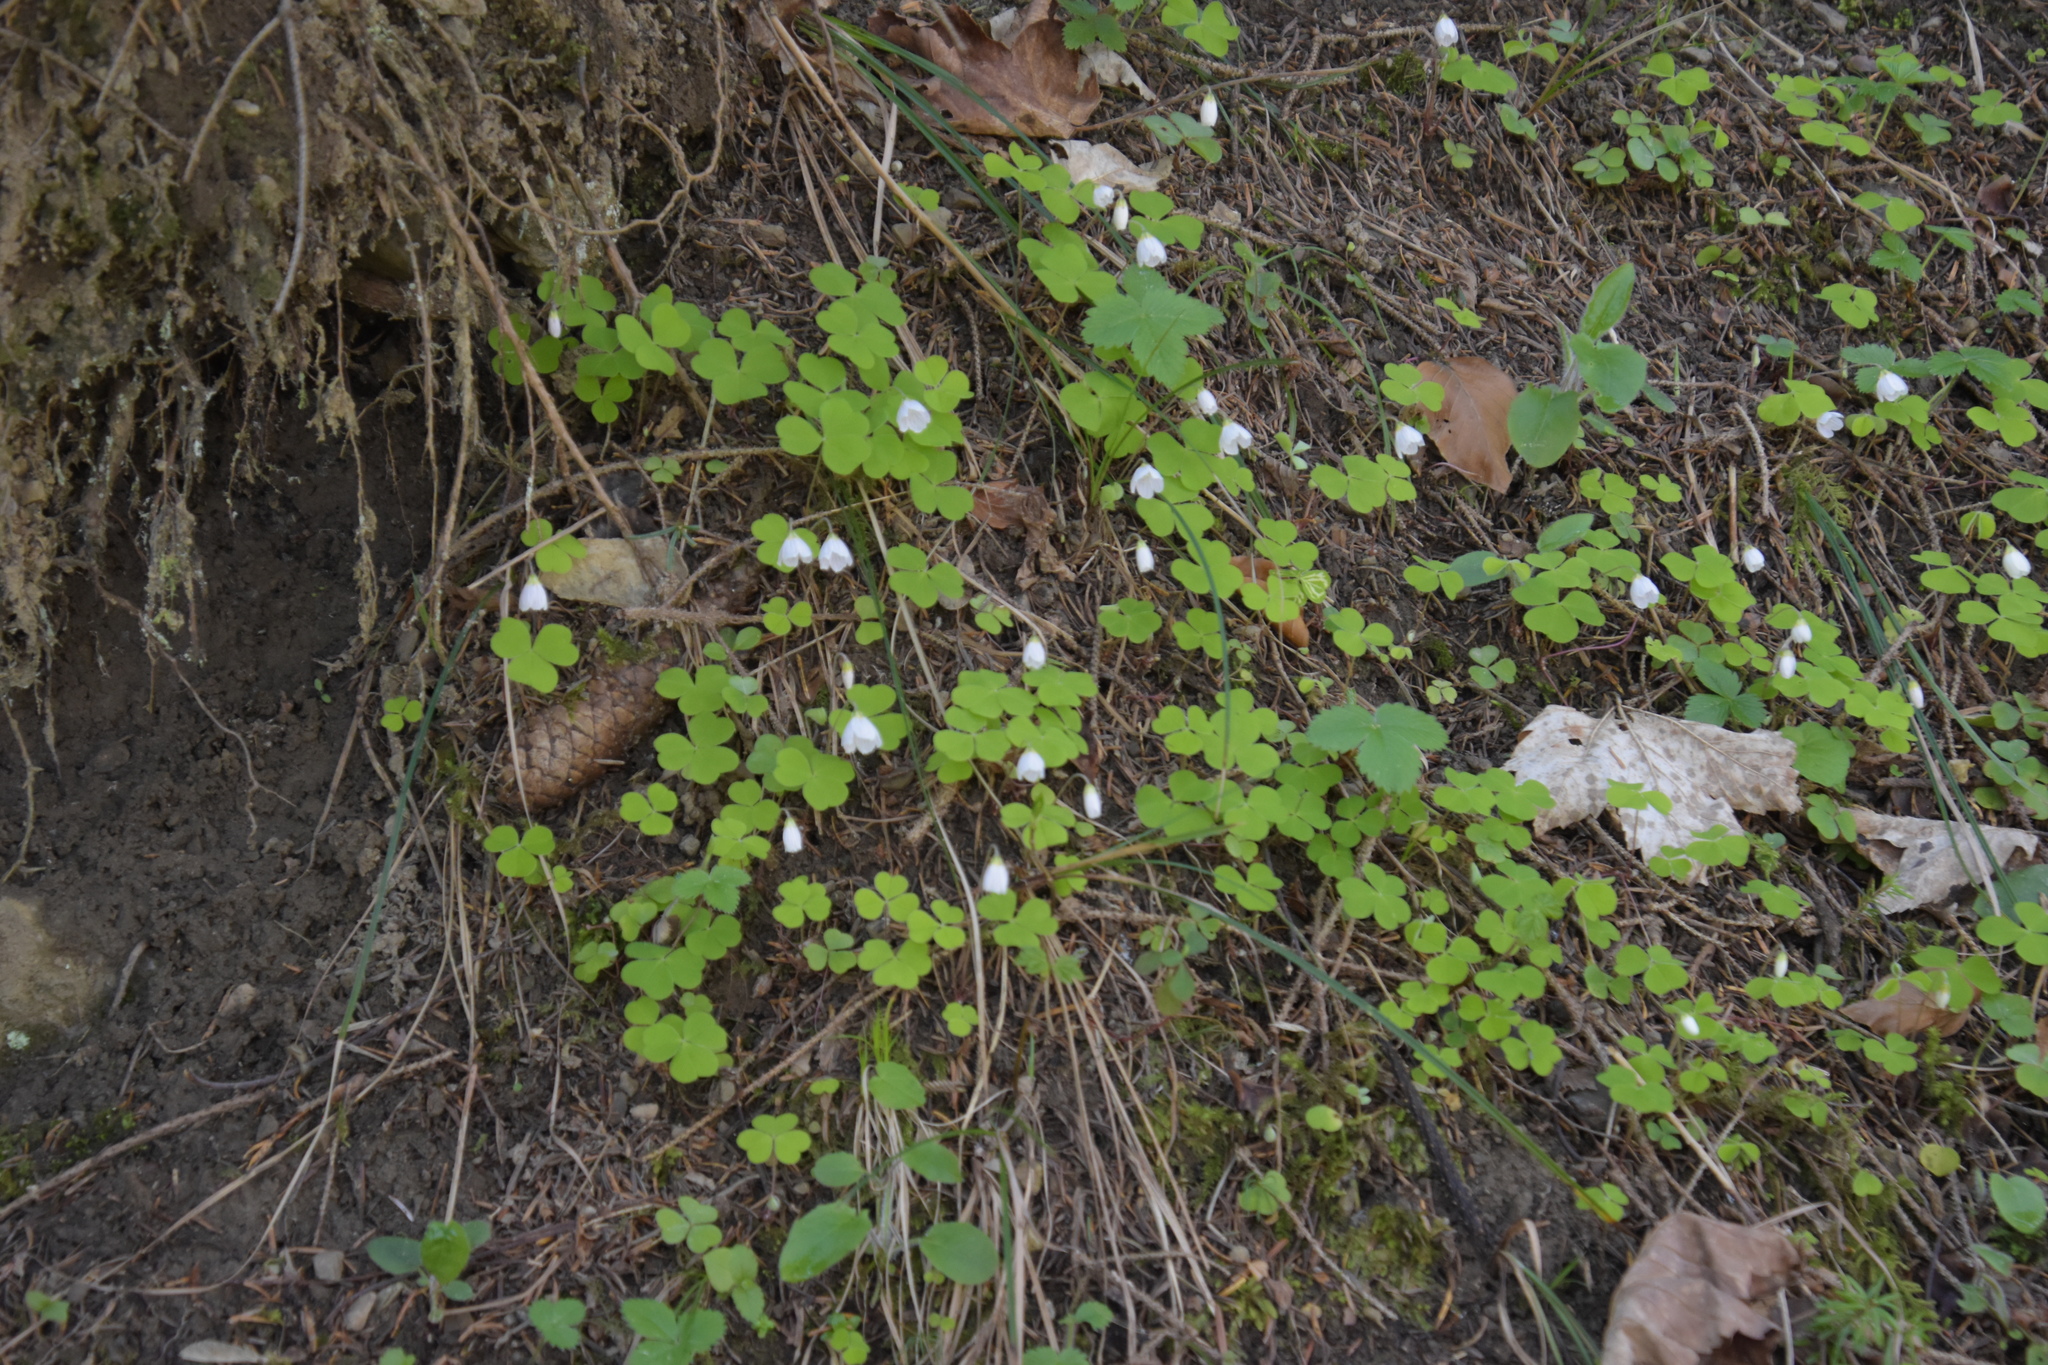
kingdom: Plantae
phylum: Tracheophyta
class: Magnoliopsida
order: Oxalidales
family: Oxalidaceae
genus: Oxalis
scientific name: Oxalis acetosella
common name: Wood-sorrel
